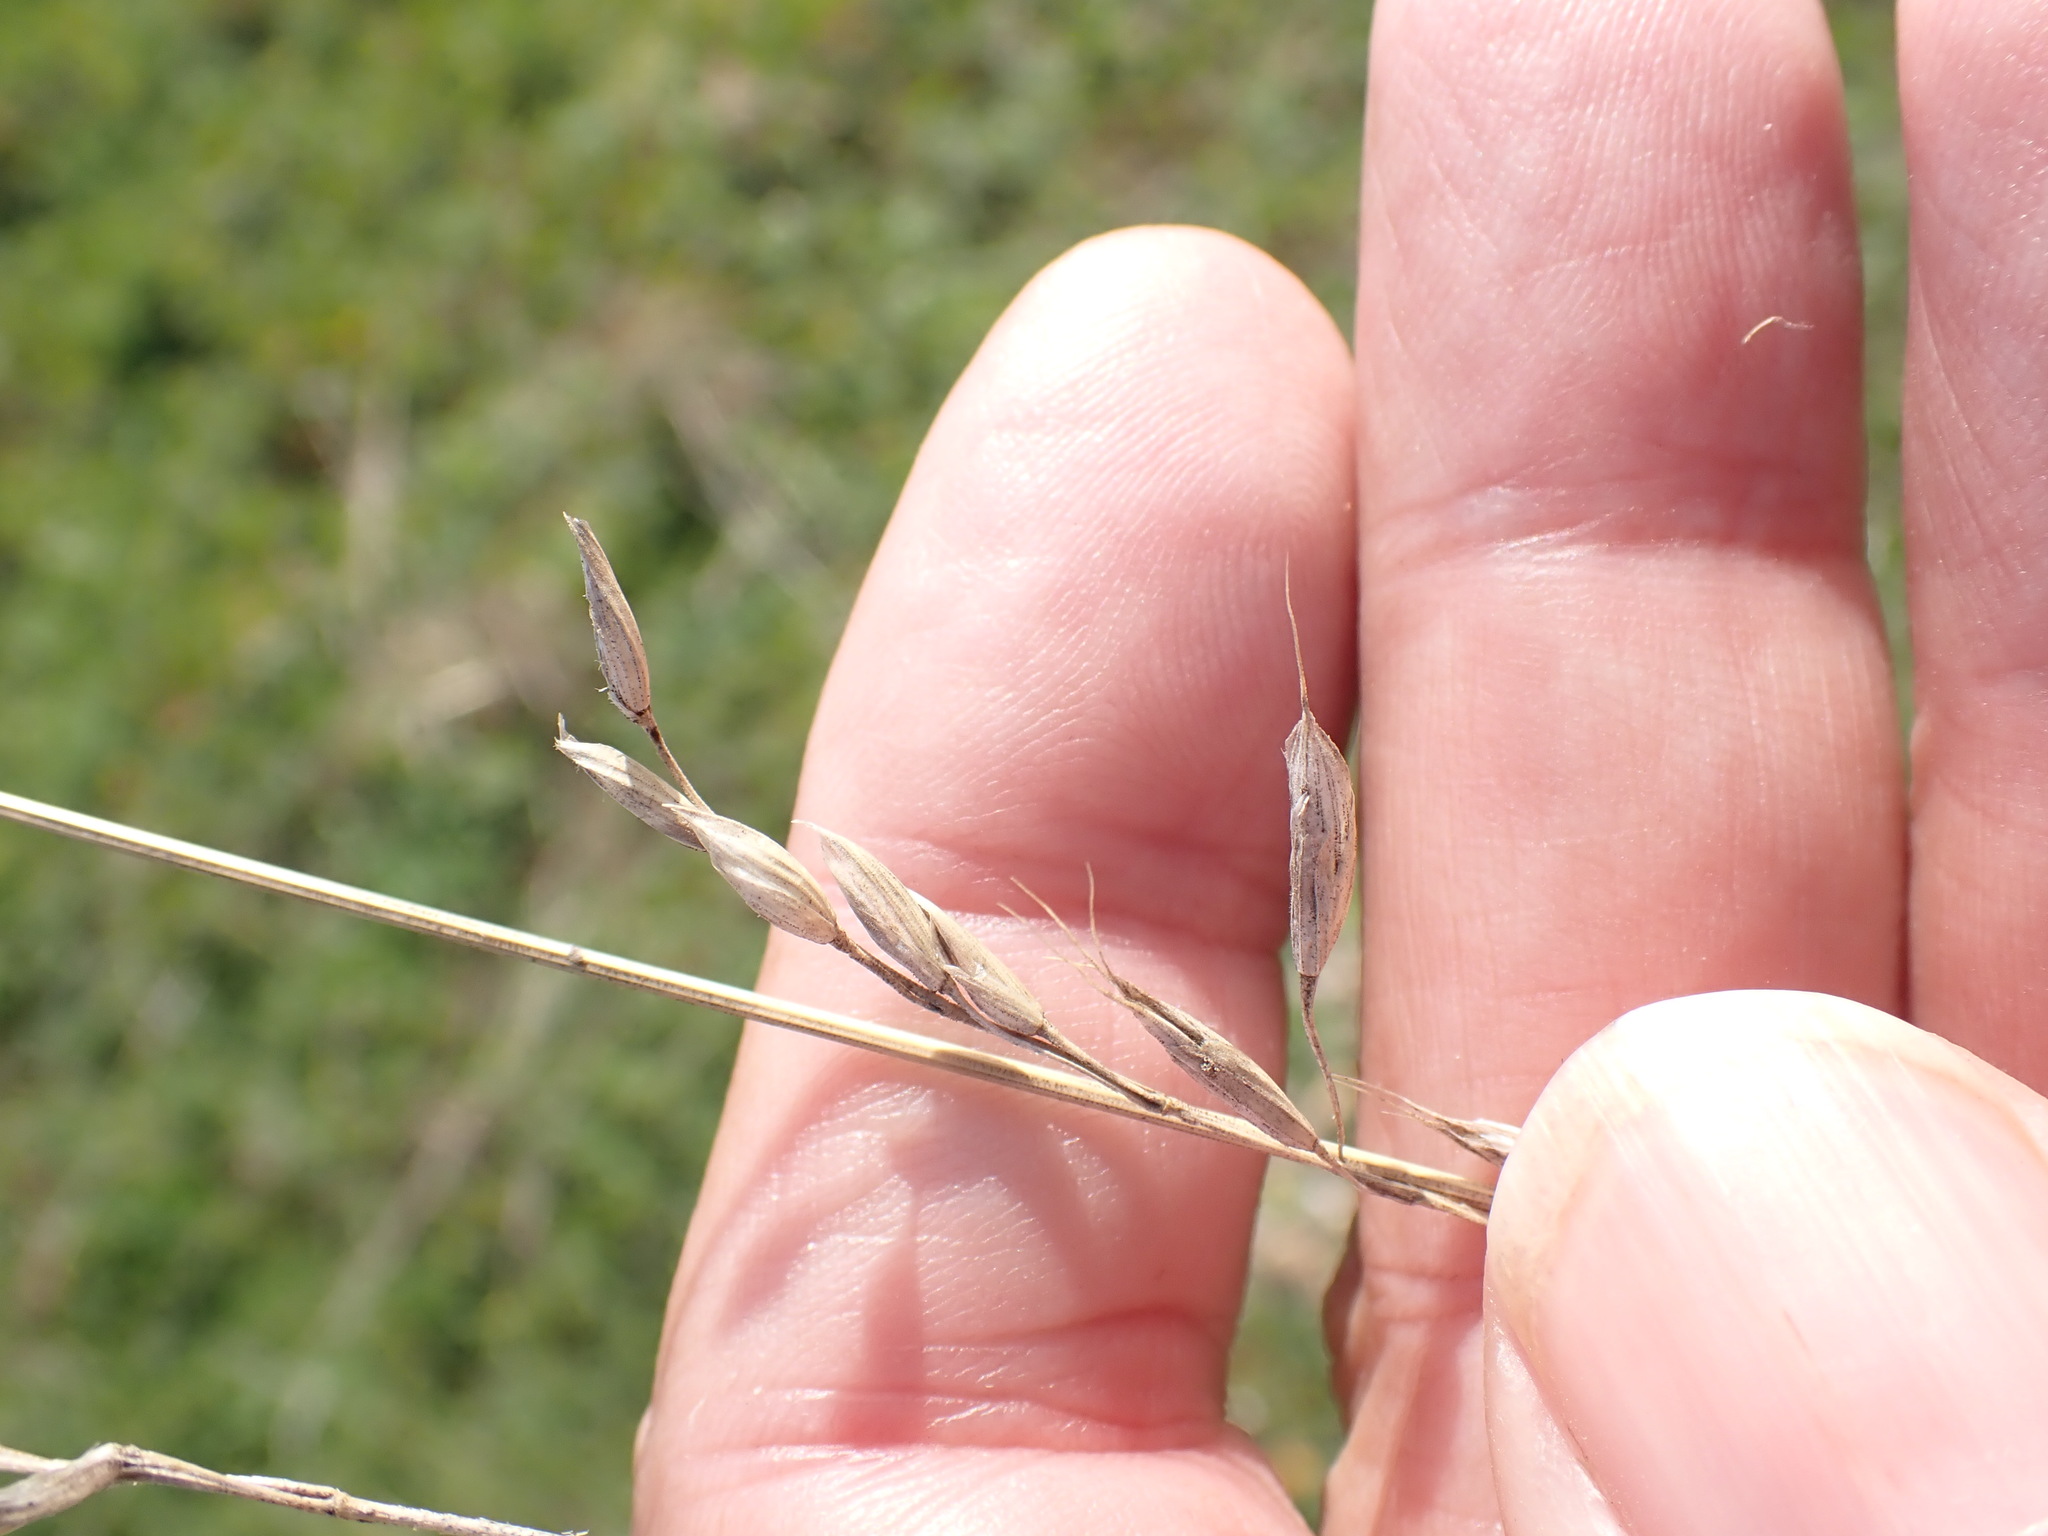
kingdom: Plantae
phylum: Tracheophyta
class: Liliopsida
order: Poales
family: Poaceae
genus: Bromus
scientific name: Bromus hordeaceus
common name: Soft brome
